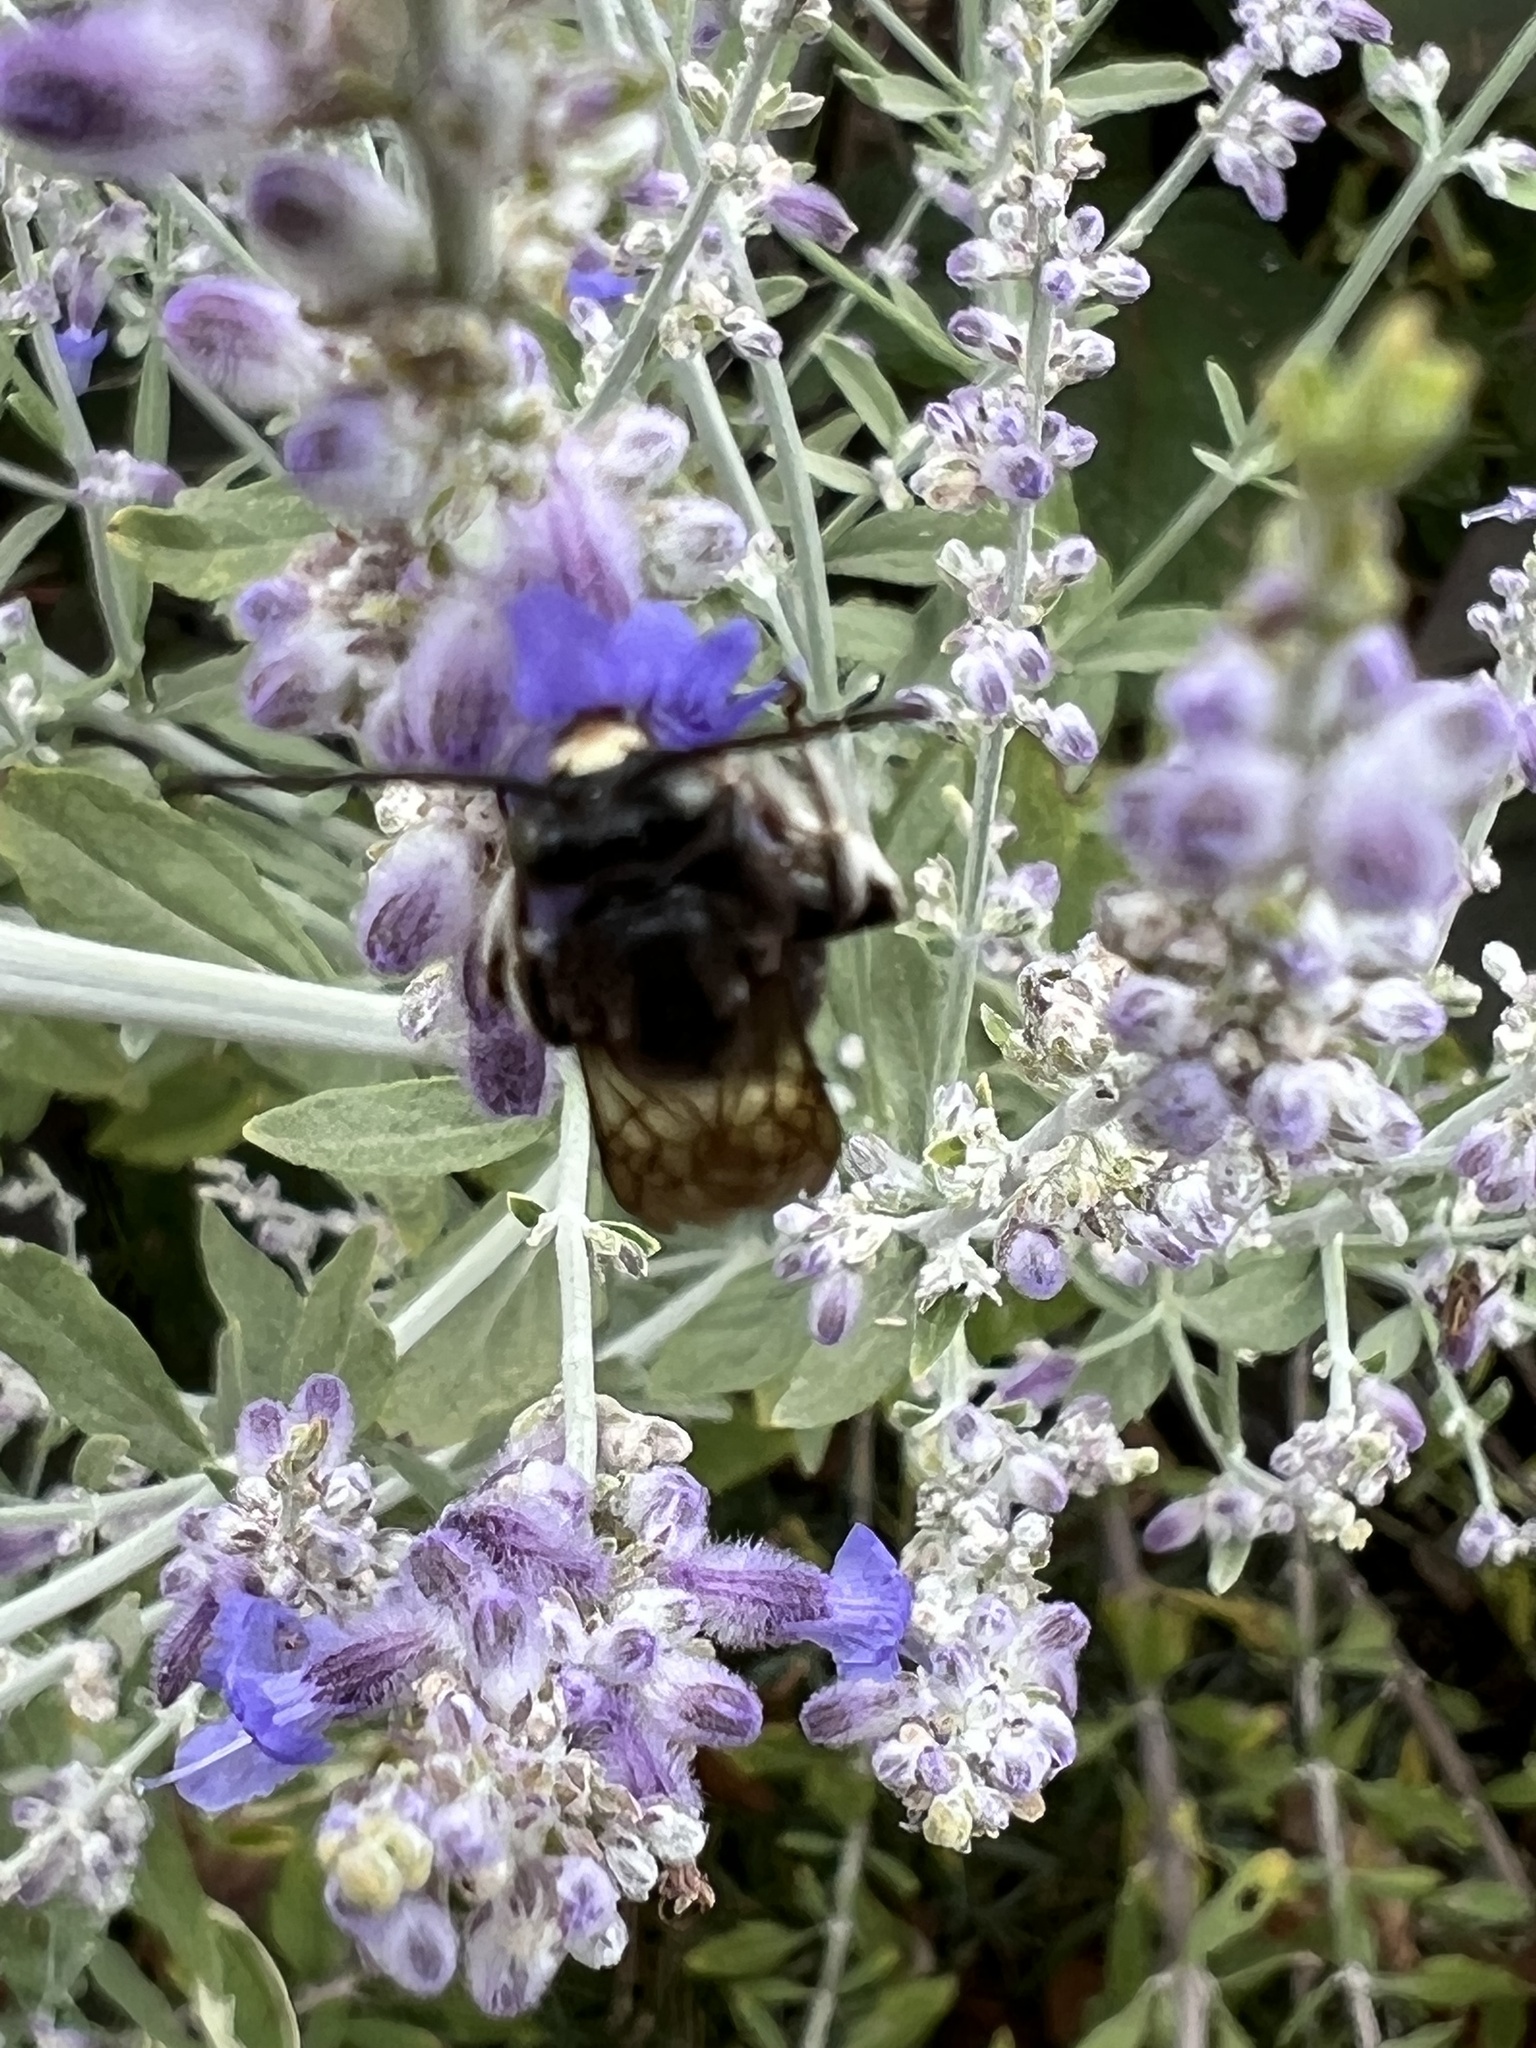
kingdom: Animalia
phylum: Arthropoda
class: Insecta
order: Hymenoptera
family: Apidae
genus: Melissodes
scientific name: Melissodes bimaculatus
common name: Two-spotted long-horned bee
